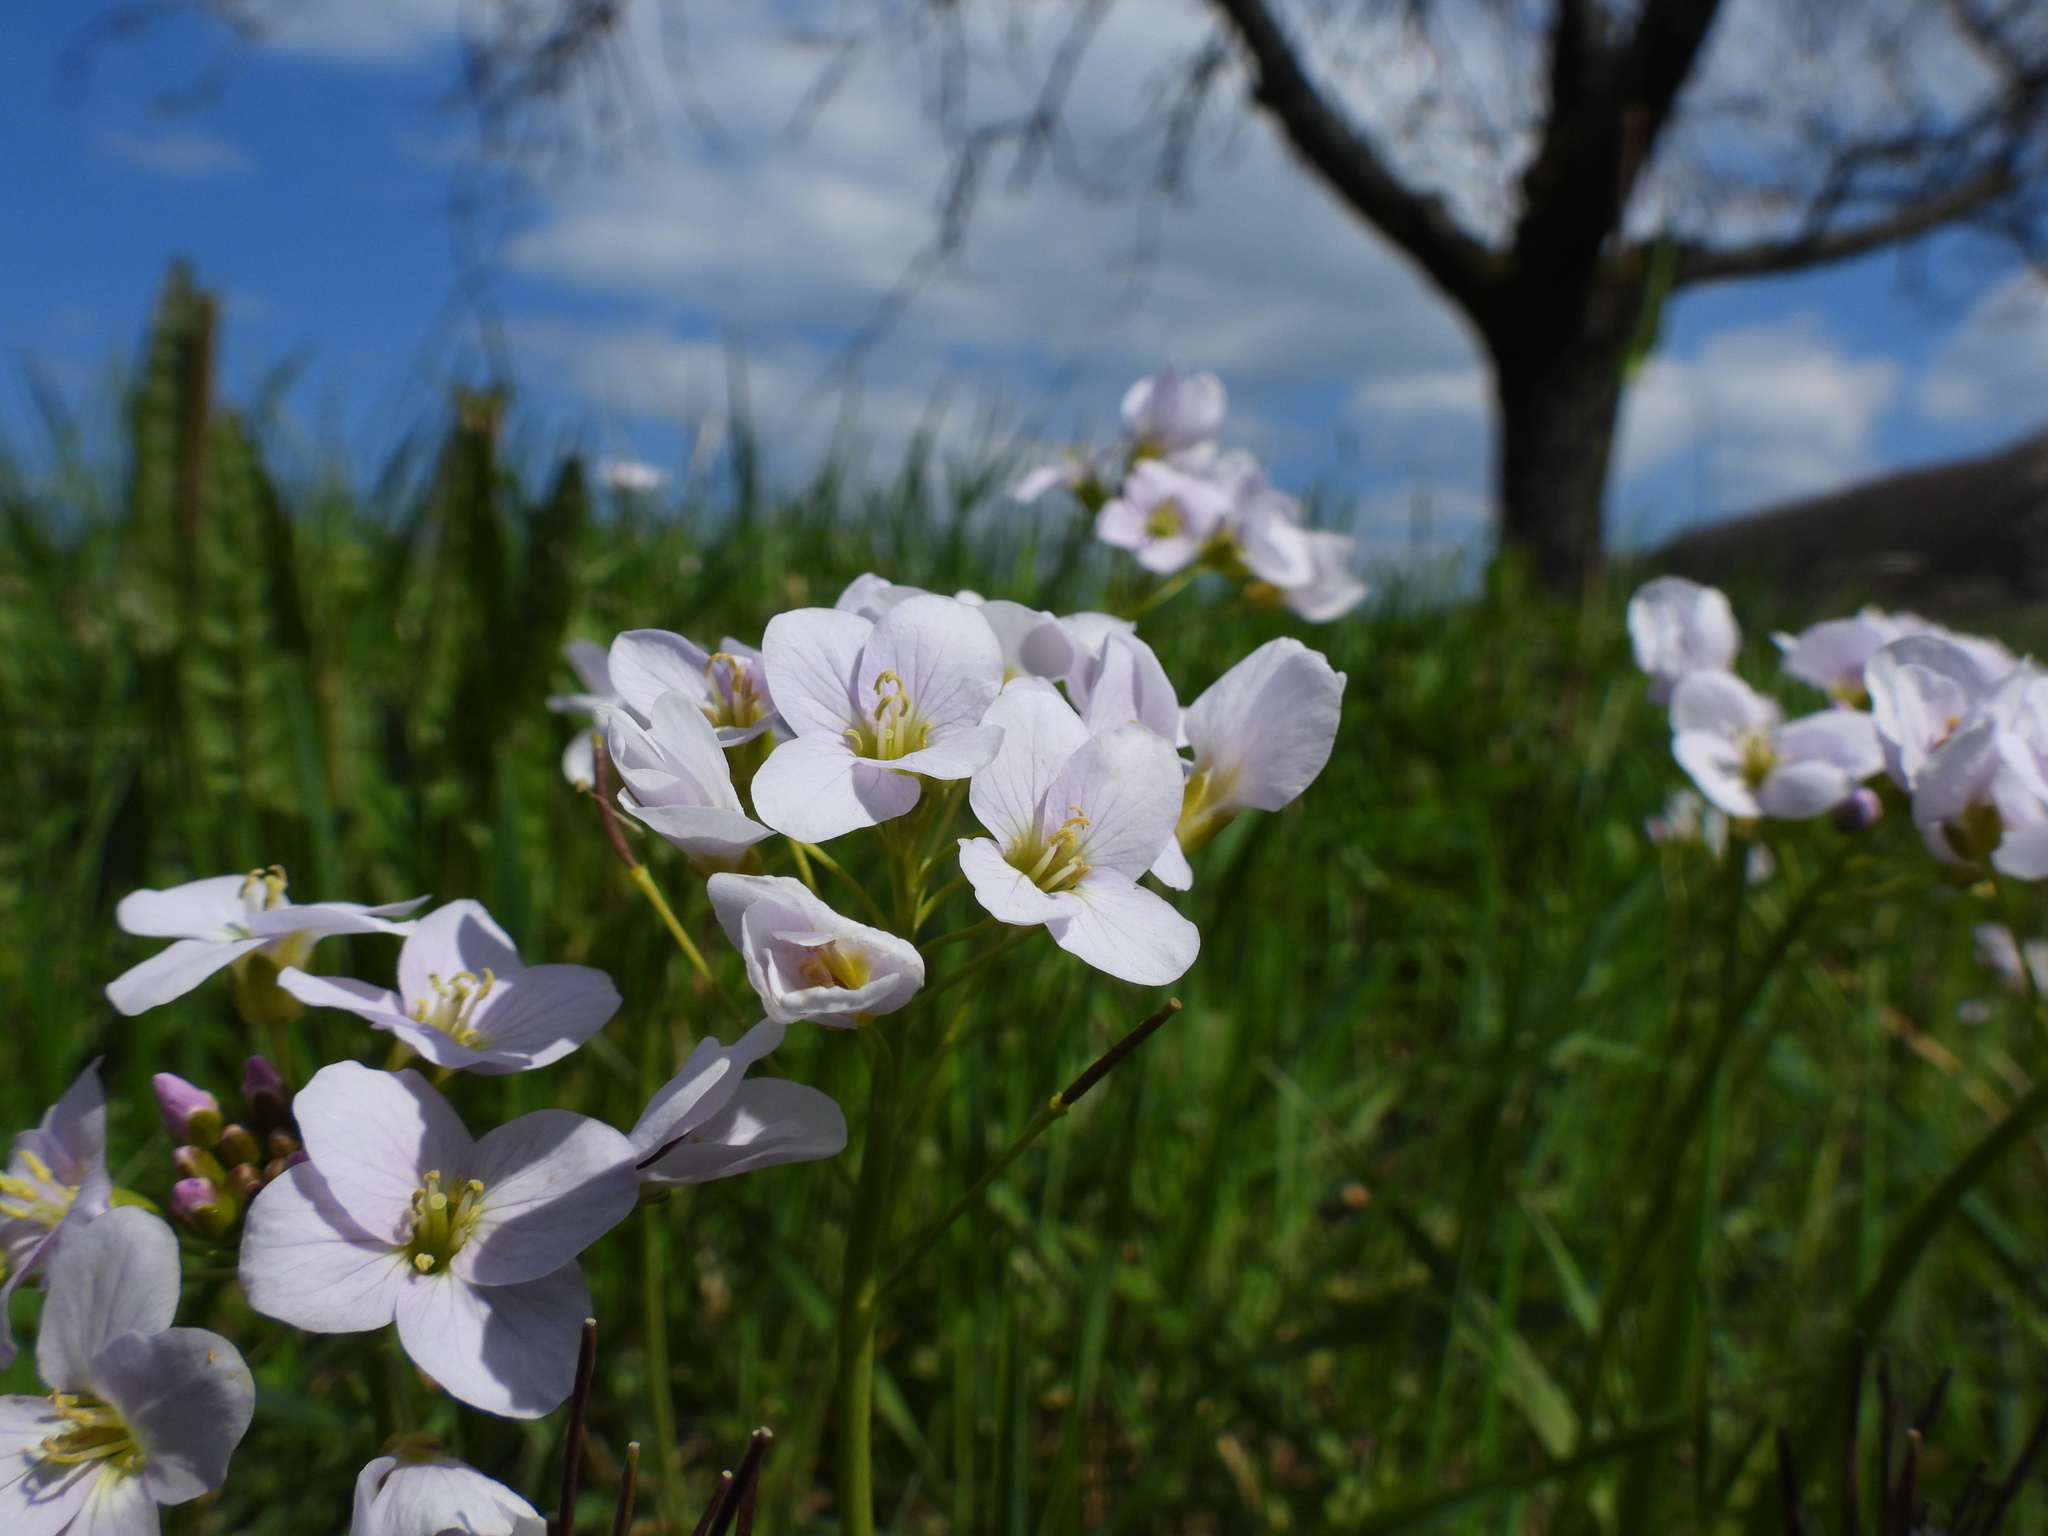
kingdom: Plantae
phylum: Tracheophyta
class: Magnoliopsida
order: Brassicales
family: Brassicaceae
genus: Cardamine
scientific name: Cardamine pratensis
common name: Cuckoo flower
